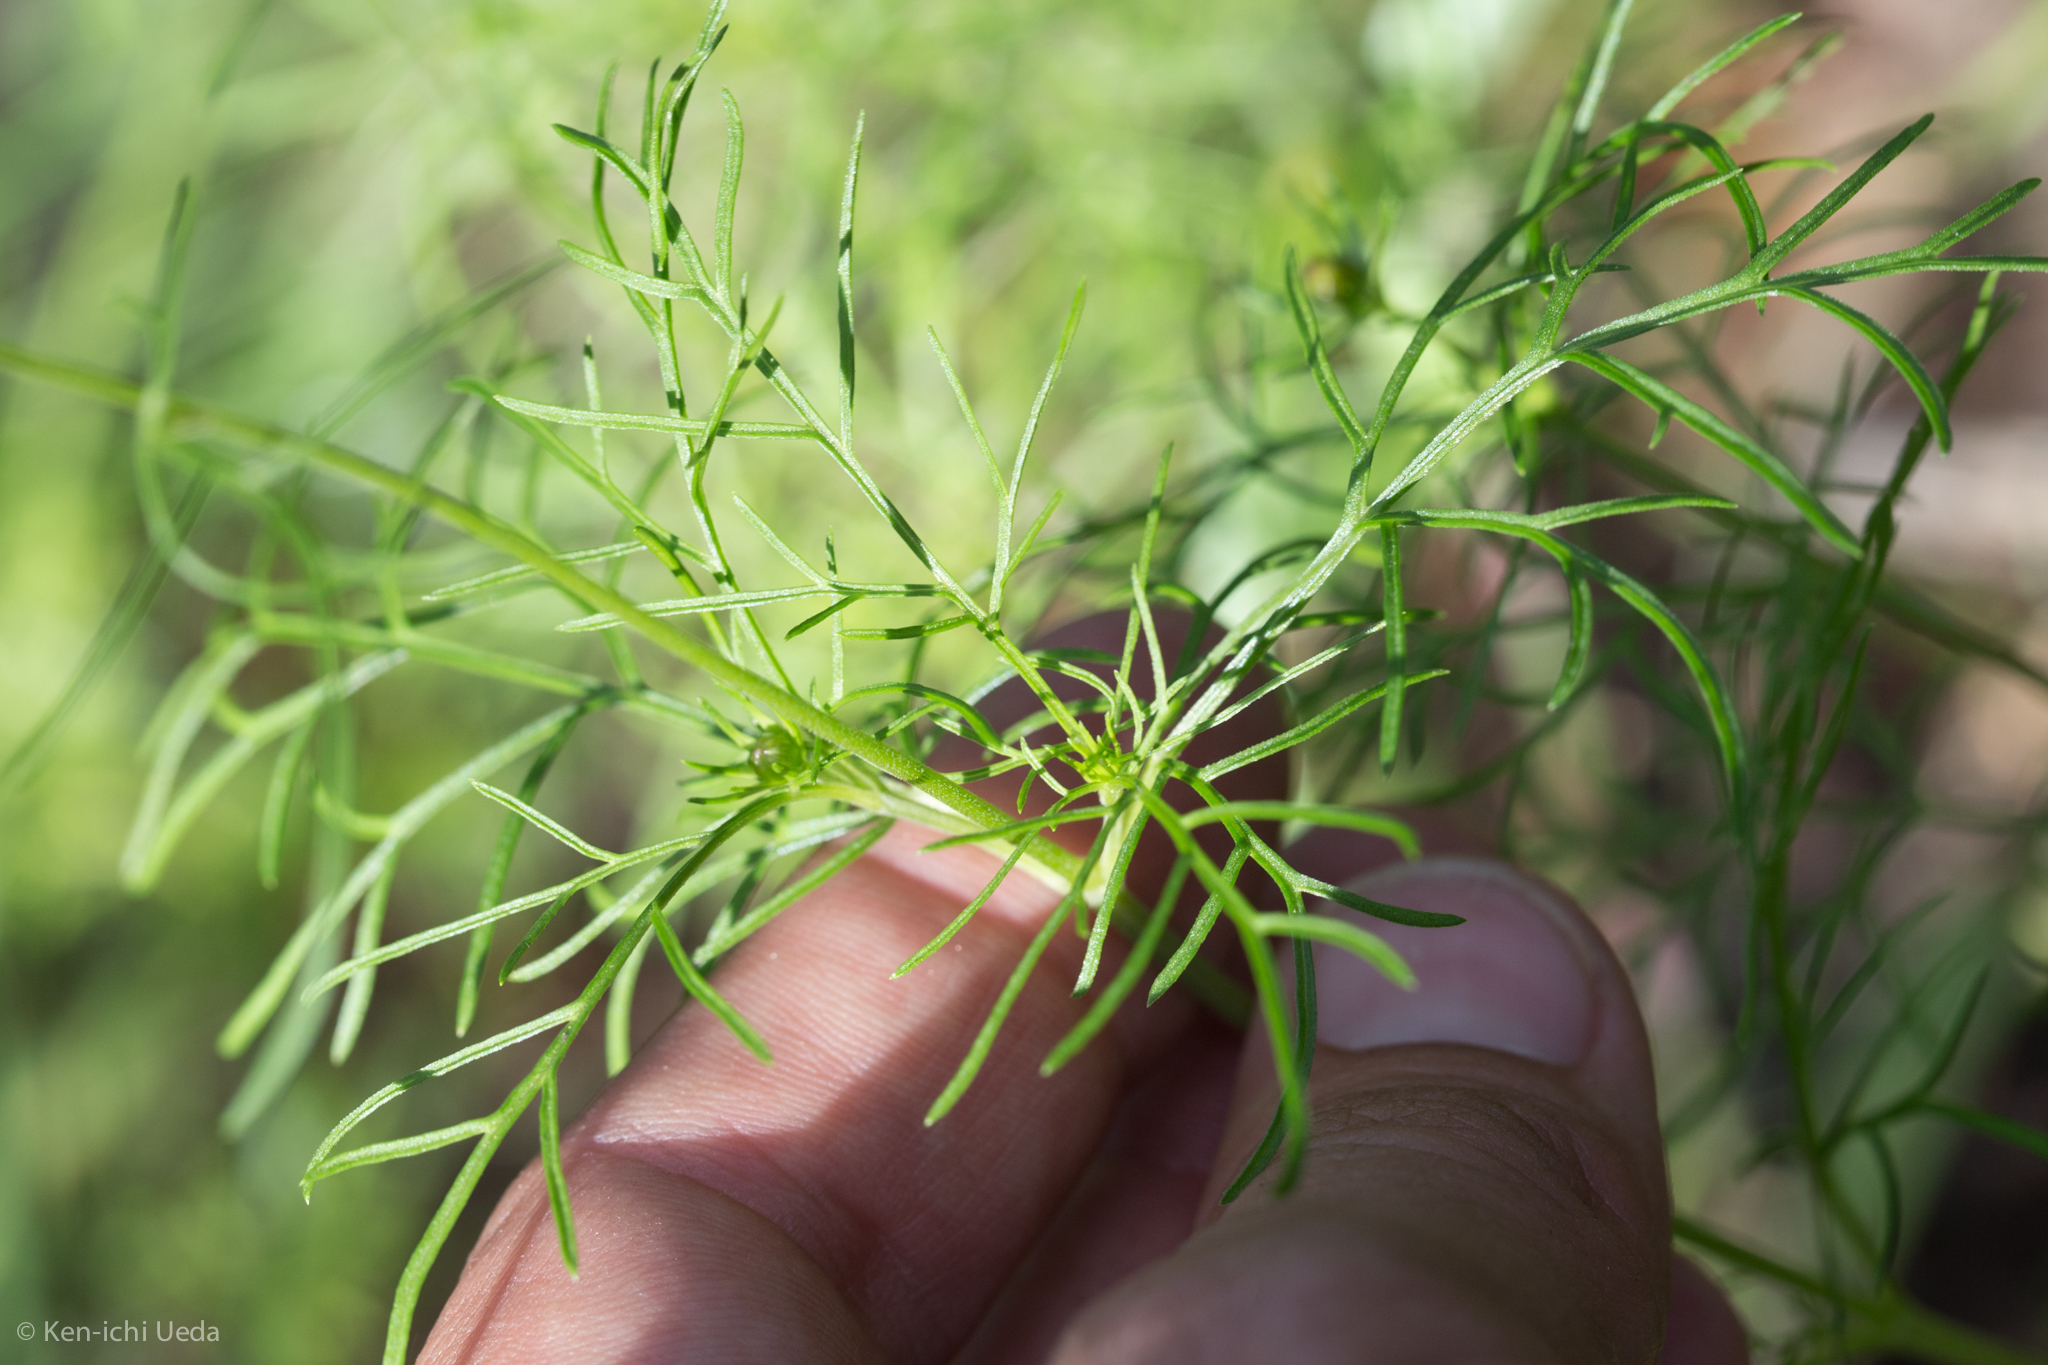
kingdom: Plantae
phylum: Tracheophyta
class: Magnoliopsida
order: Asterales
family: Asteraceae
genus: Cosmos
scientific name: Cosmos parviflorus
